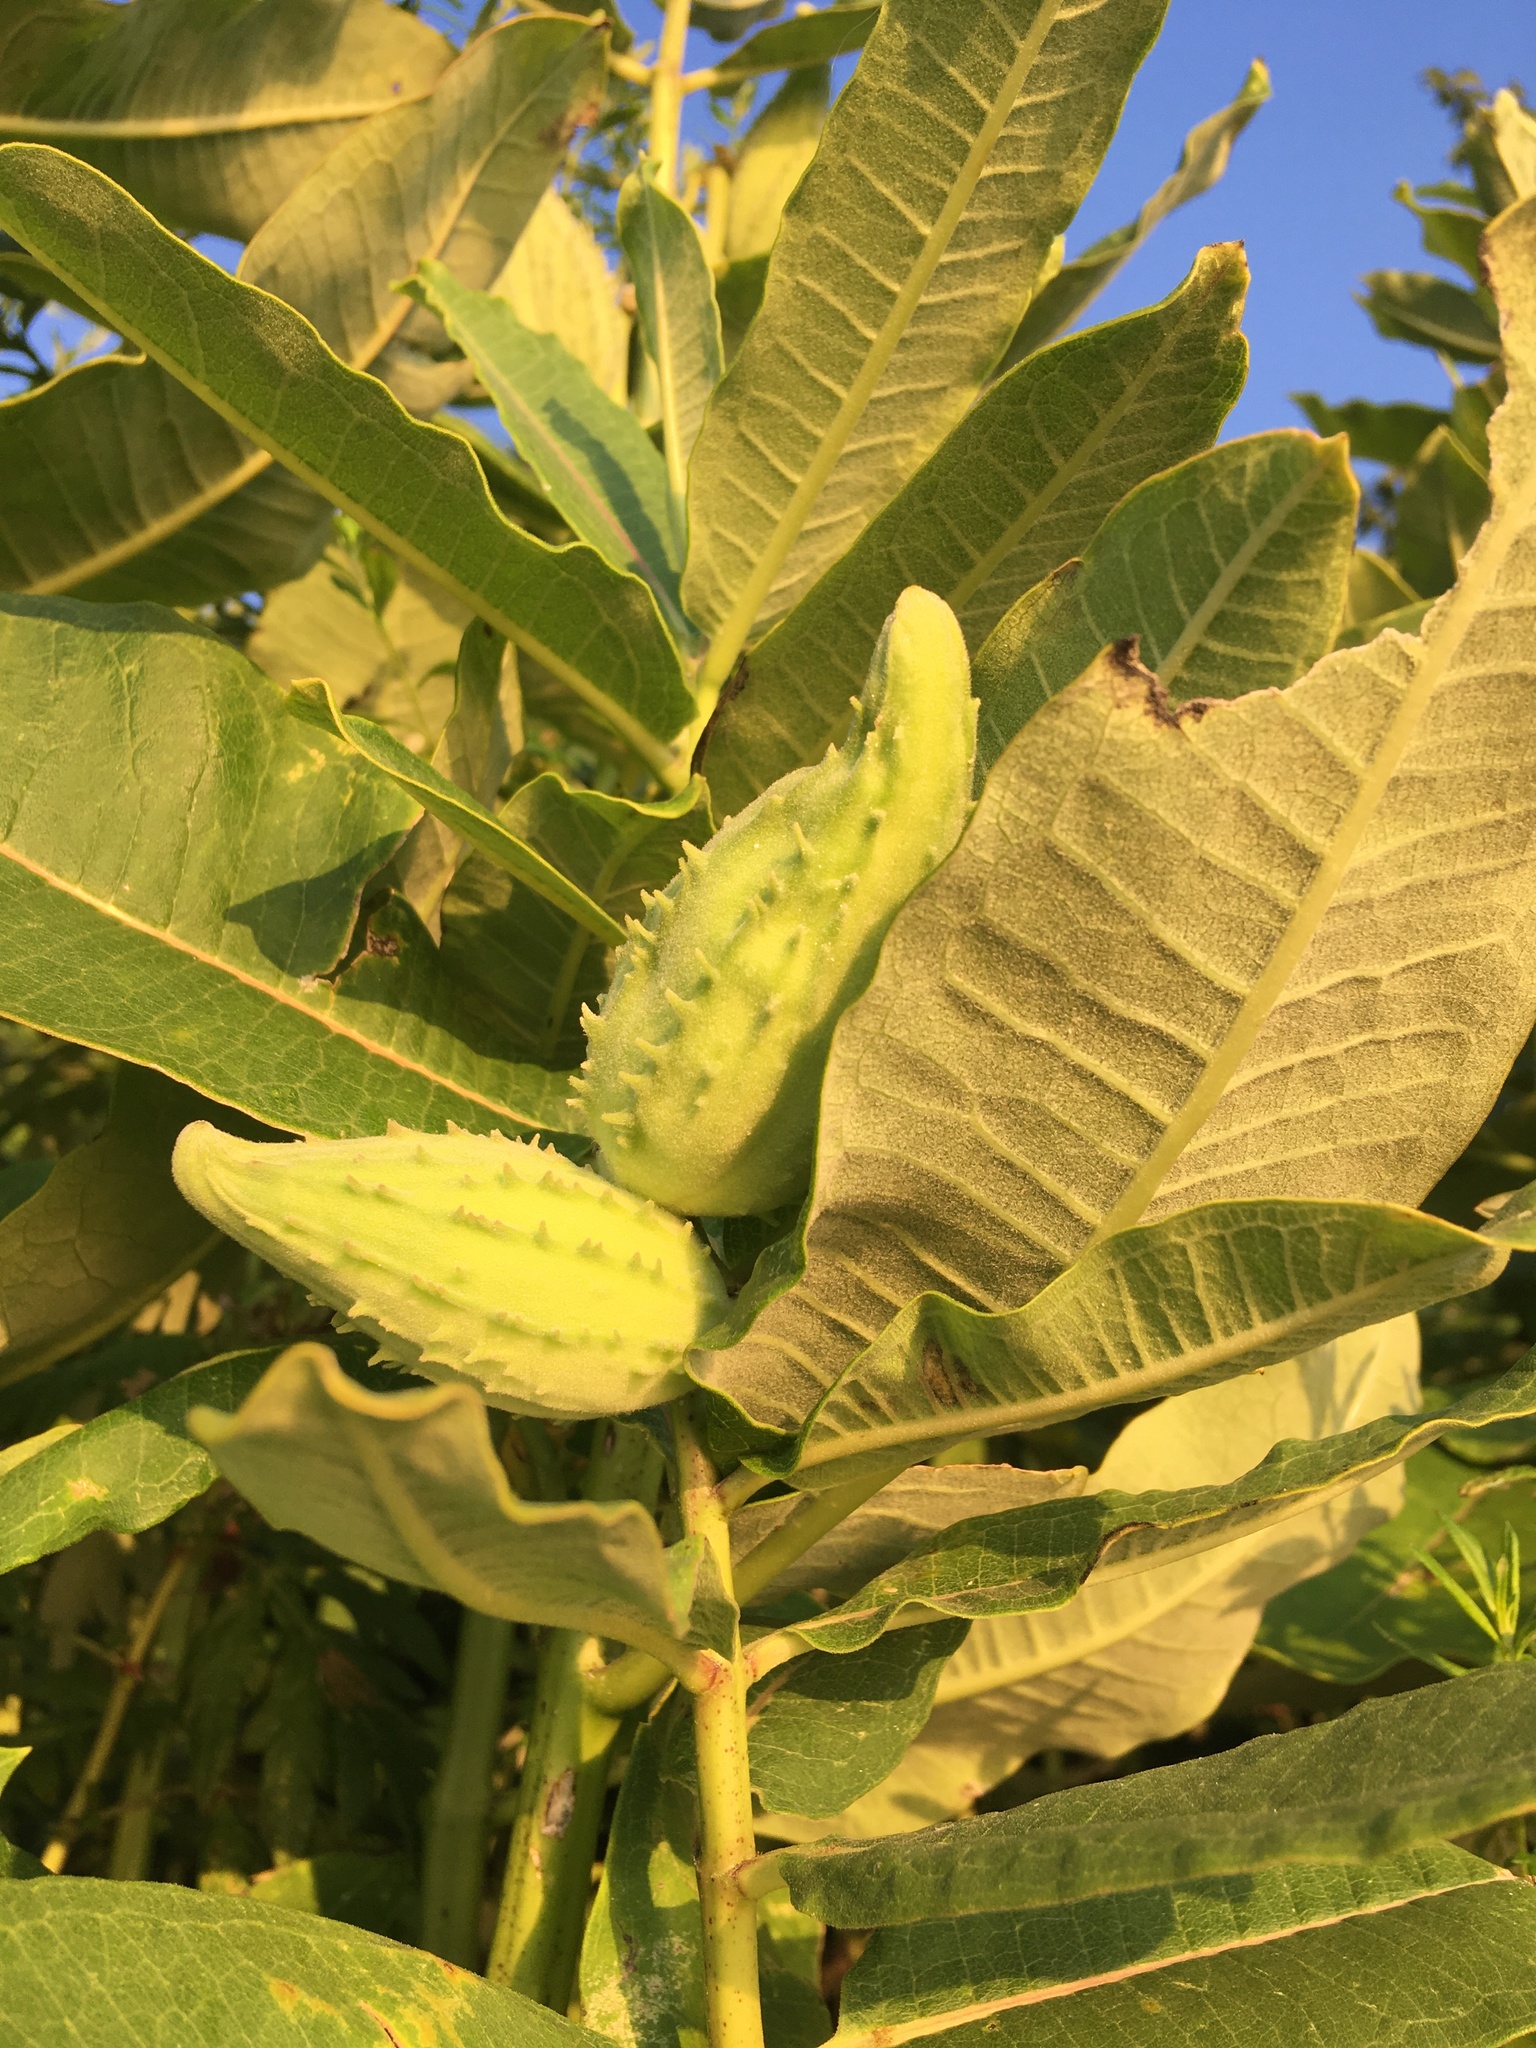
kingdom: Plantae
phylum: Tracheophyta
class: Magnoliopsida
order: Gentianales
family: Apocynaceae
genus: Asclepias
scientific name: Asclepias syriaca
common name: Common milkweed
